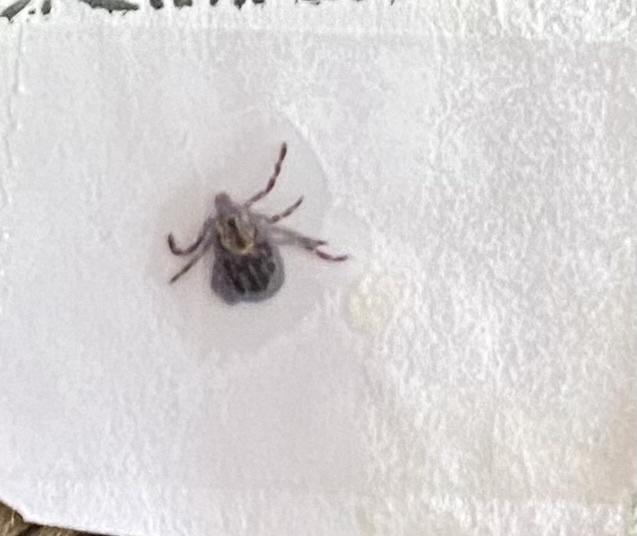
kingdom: Animalia
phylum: Arthropoda
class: Arachnida
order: Ixodida
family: Ixodidae
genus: Dermacentor
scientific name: Dermacentor variabilis
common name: American dog tick
